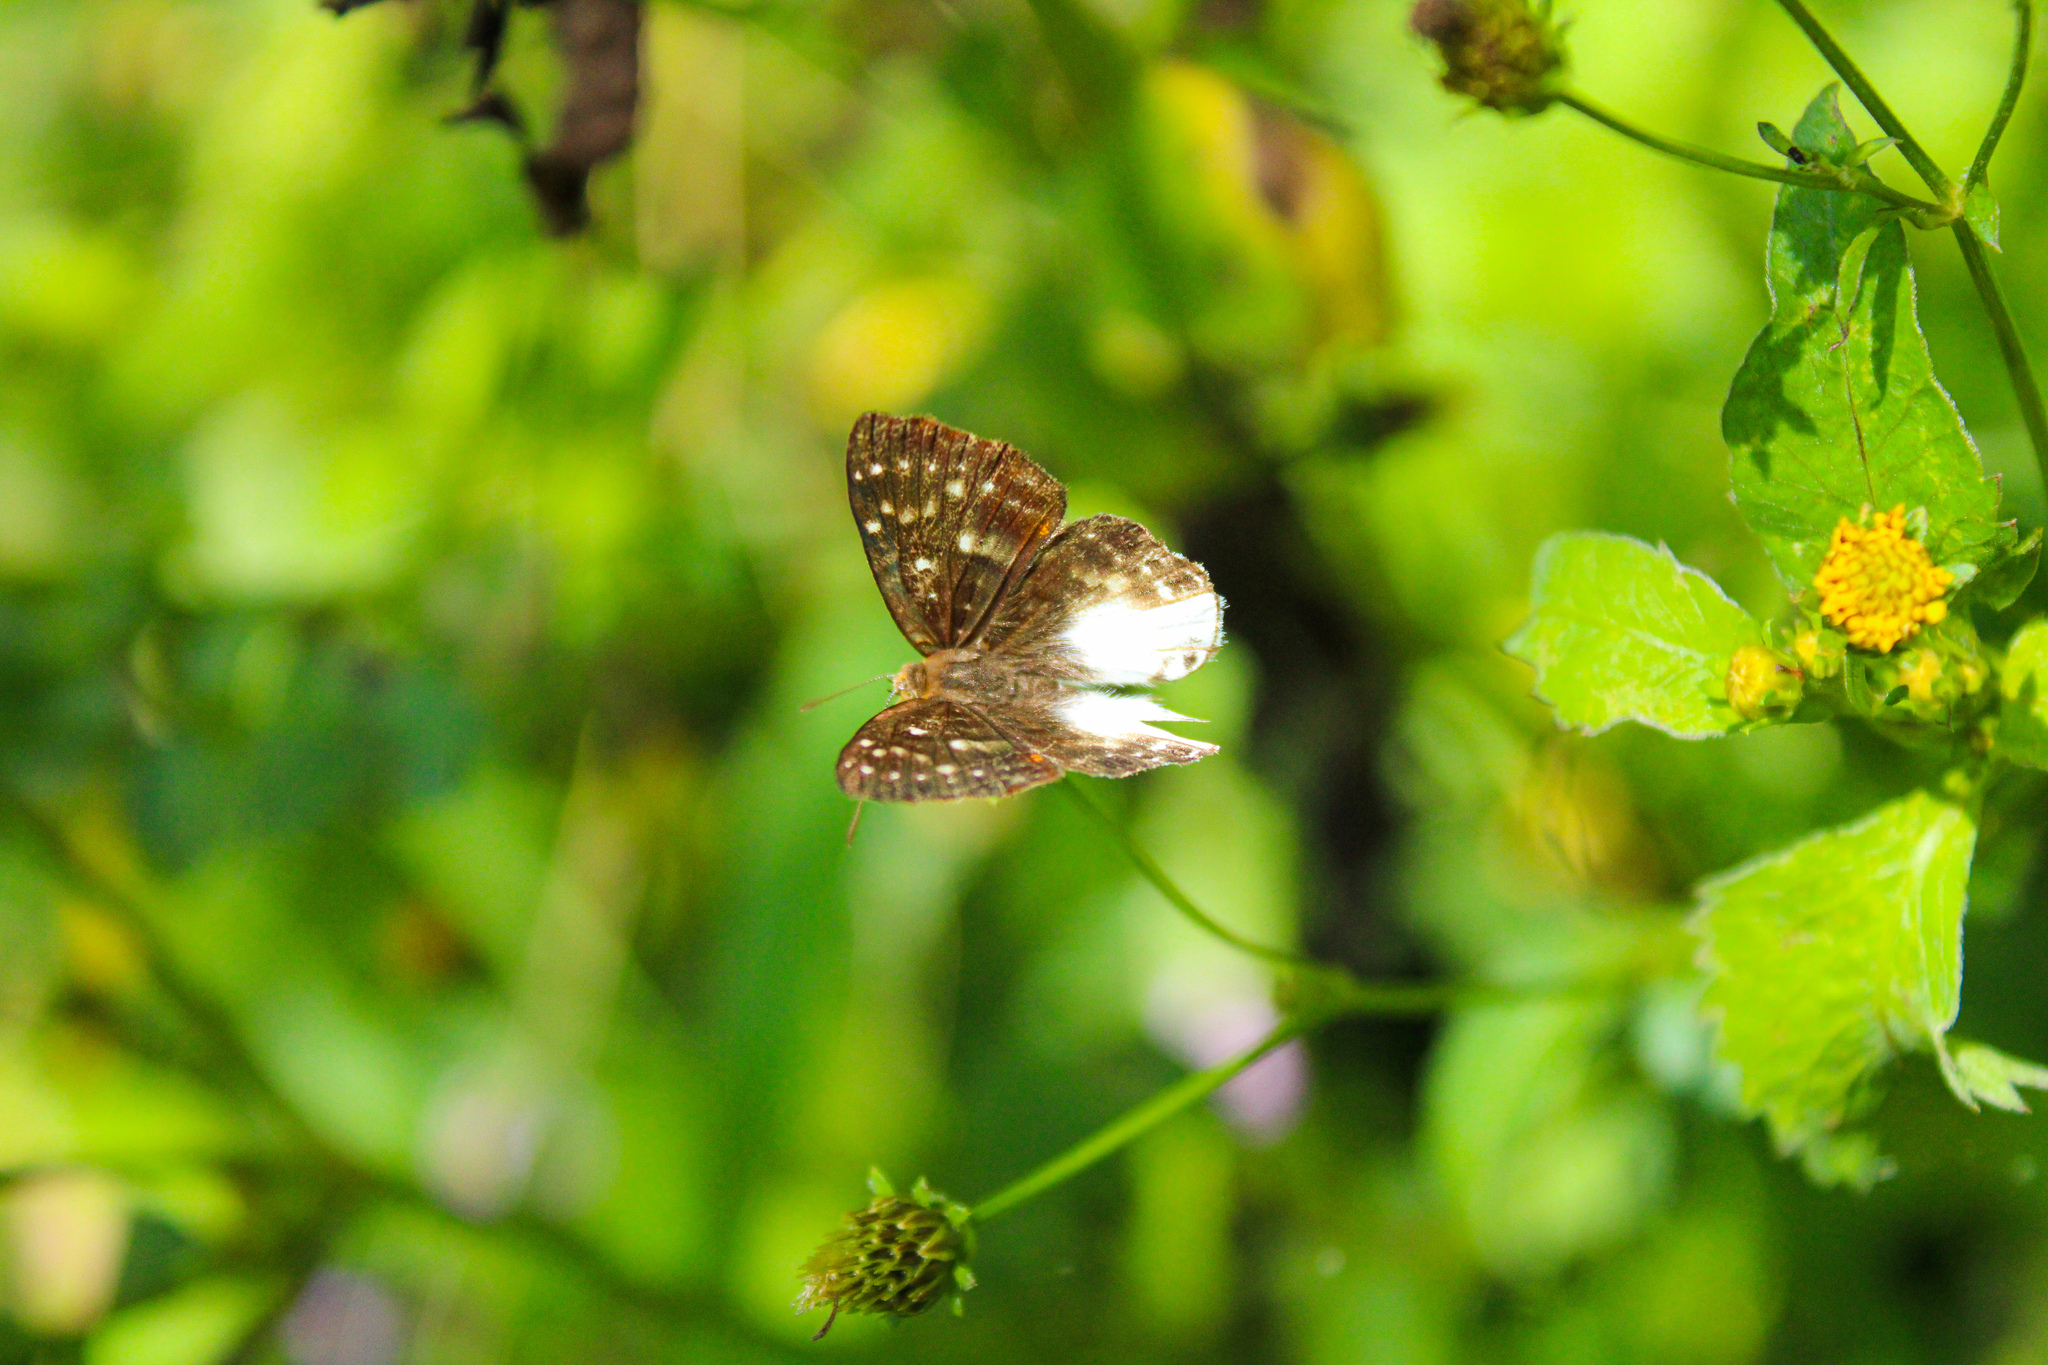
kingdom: Animalia
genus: Lemonias
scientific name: Lemonias zygia
